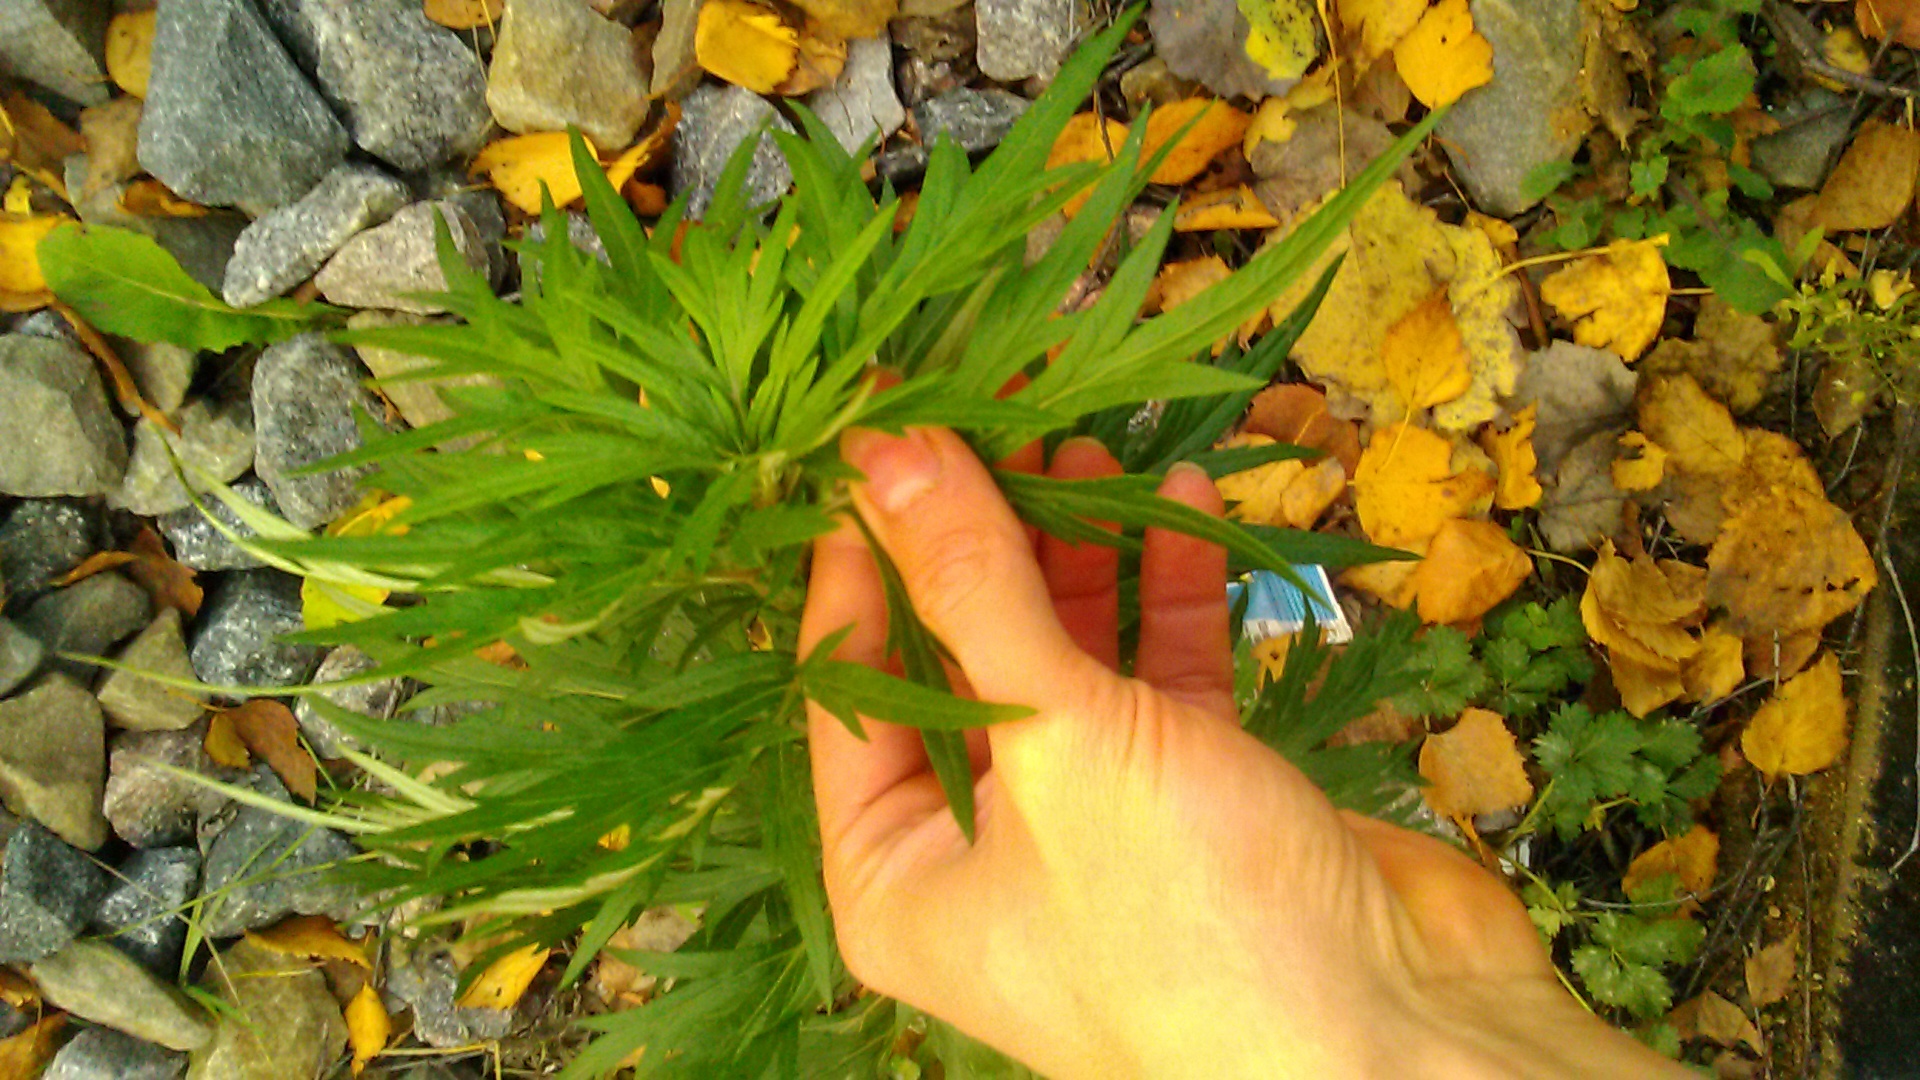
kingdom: Plantae
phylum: Tracheophyta
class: Magnoliopsida
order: Asterales
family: Asteraceae
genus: Artemisia
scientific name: Artemisia vulgaris
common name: Mugwort
